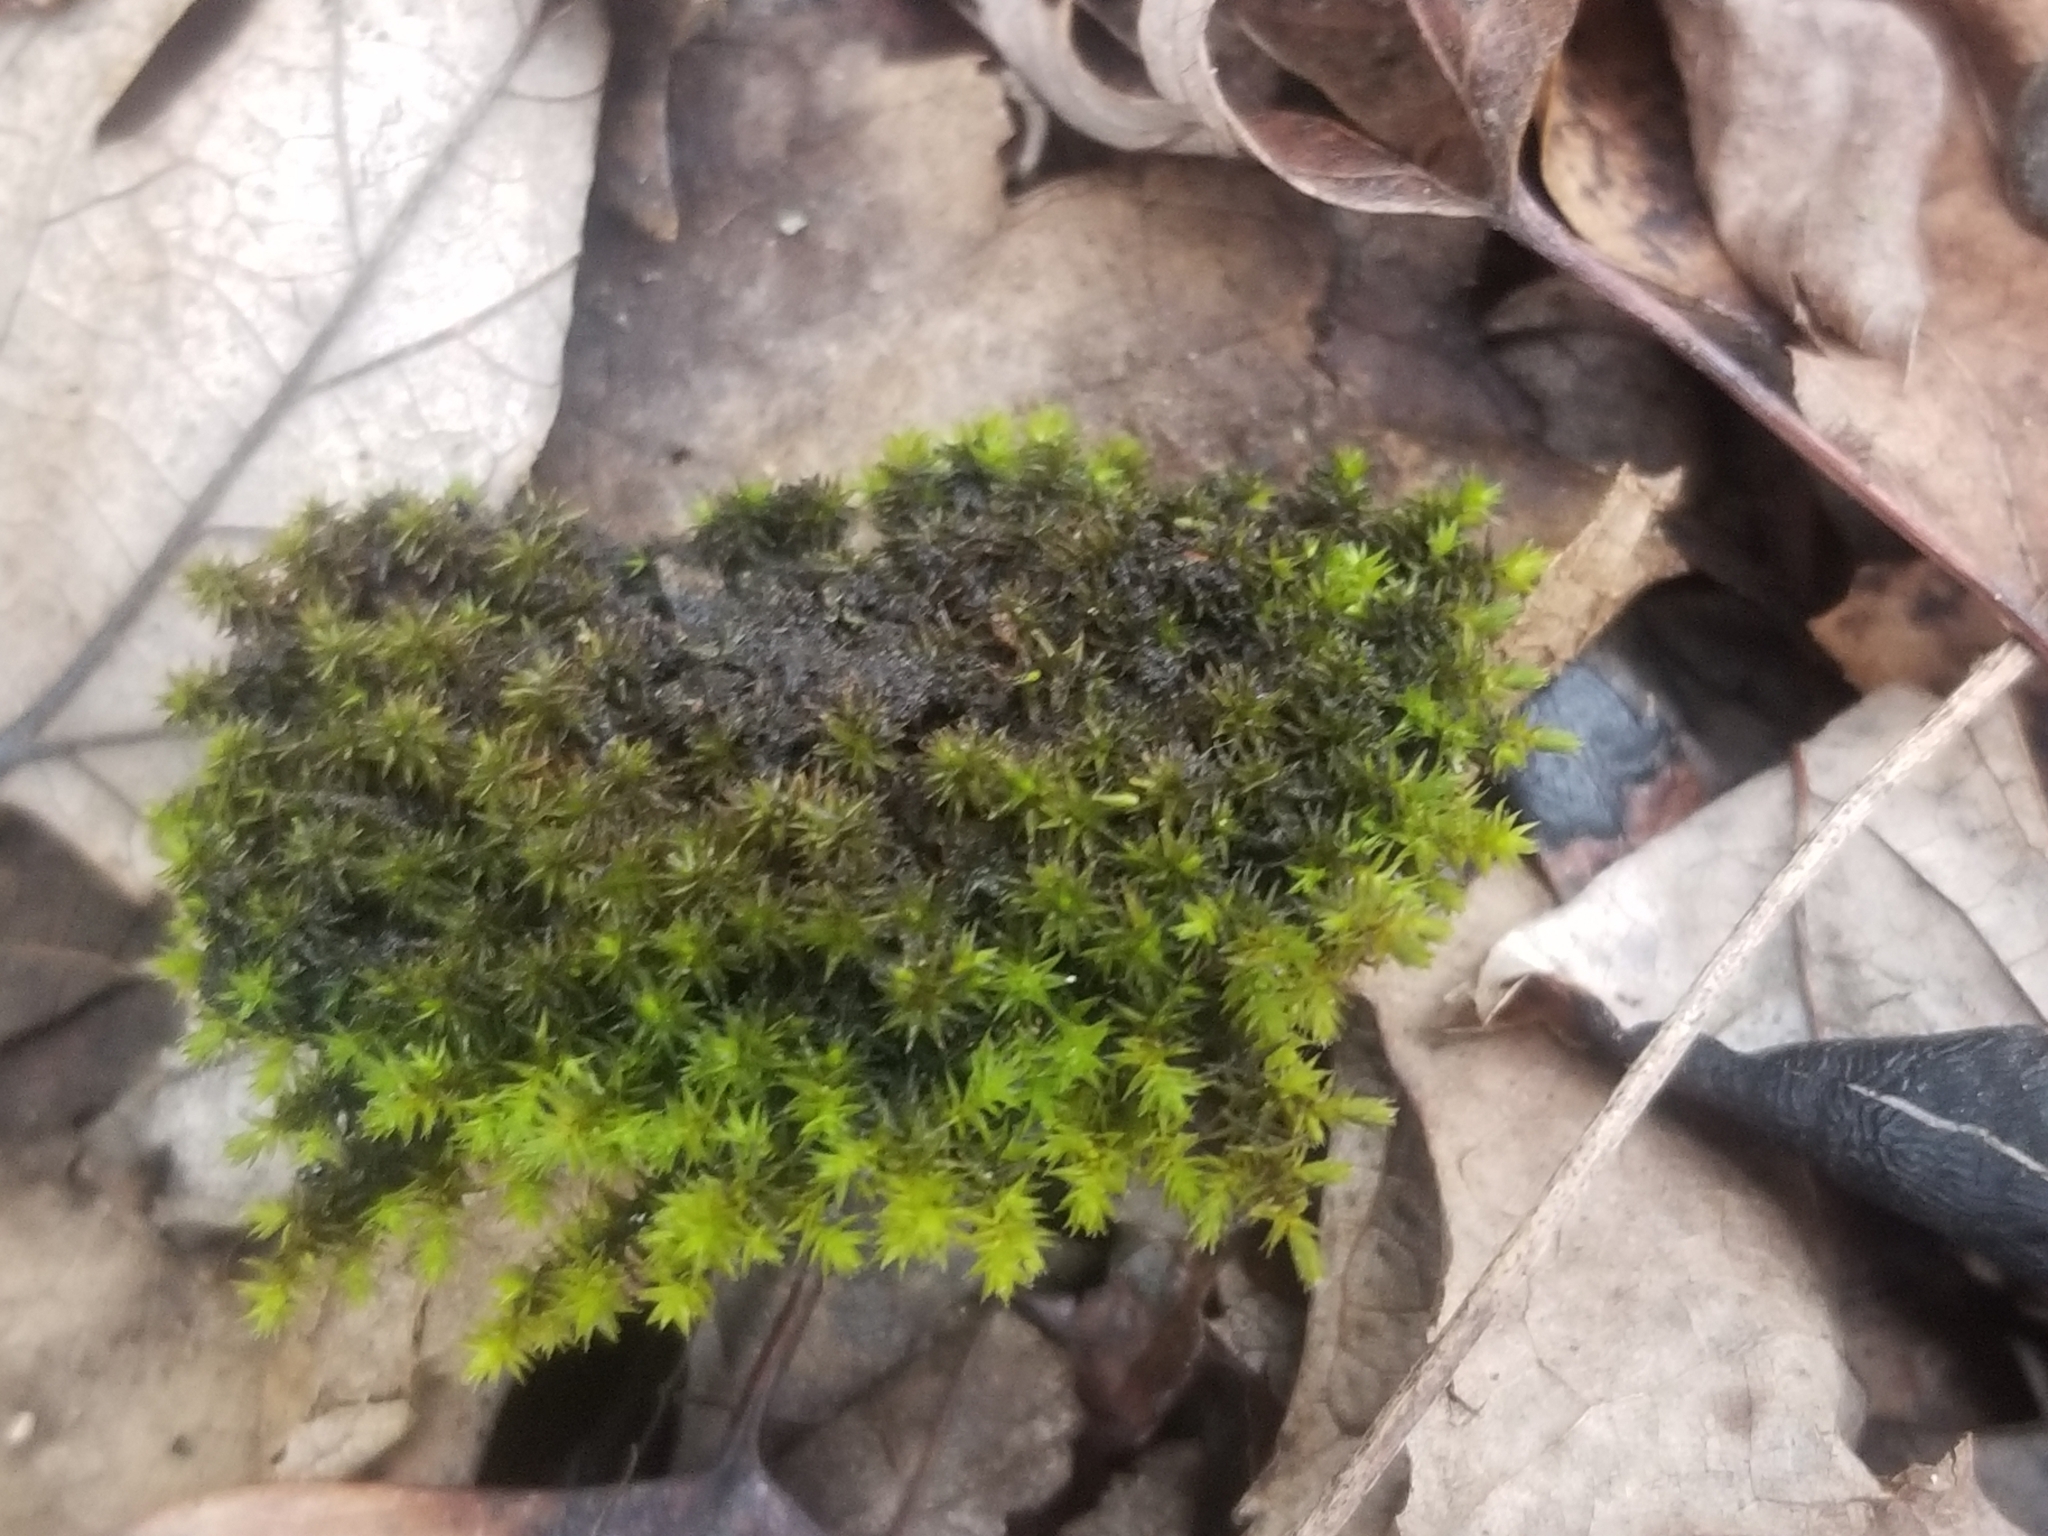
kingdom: Plantae
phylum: Bryophyta
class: Bryopsida
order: Hedwigiales
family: Hedwigiaceae
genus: Hedwigia
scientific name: Hedwigia ciliata
